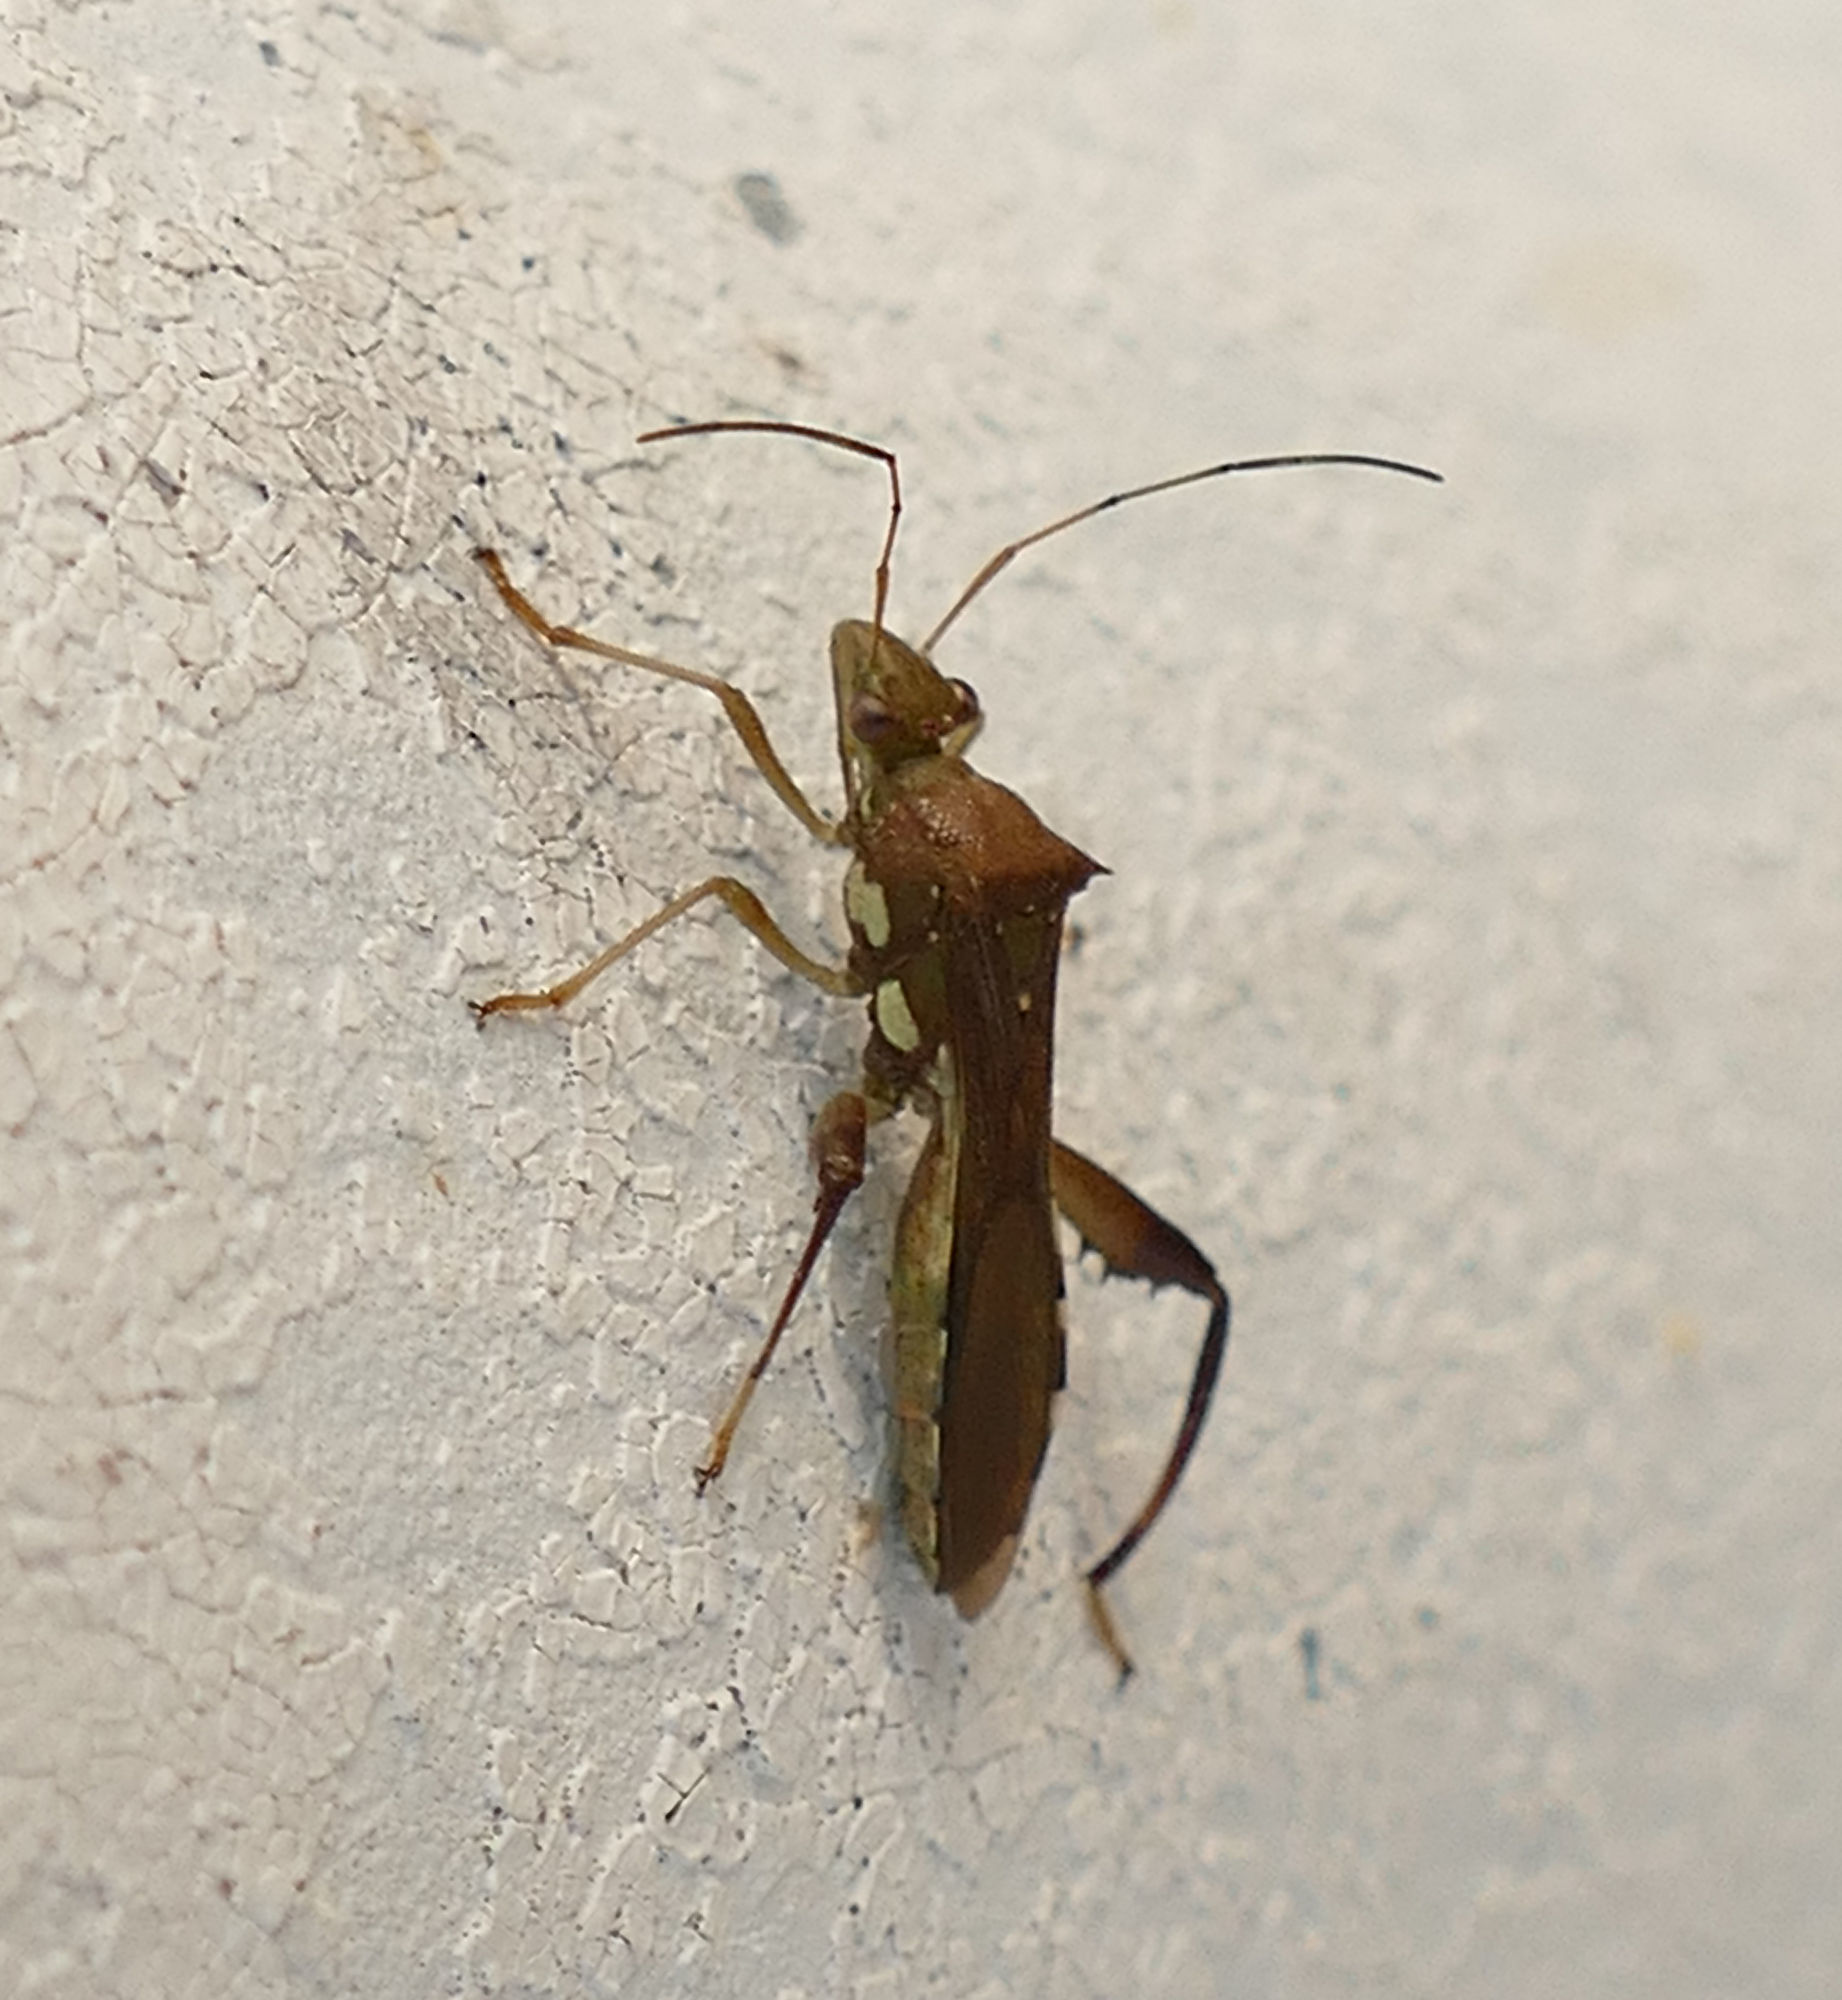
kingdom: Animalia
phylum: Arthropoda
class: Insecta
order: Hemiptera
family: Alydidae
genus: Hyalymenus
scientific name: Hyalymenus tarsatus
